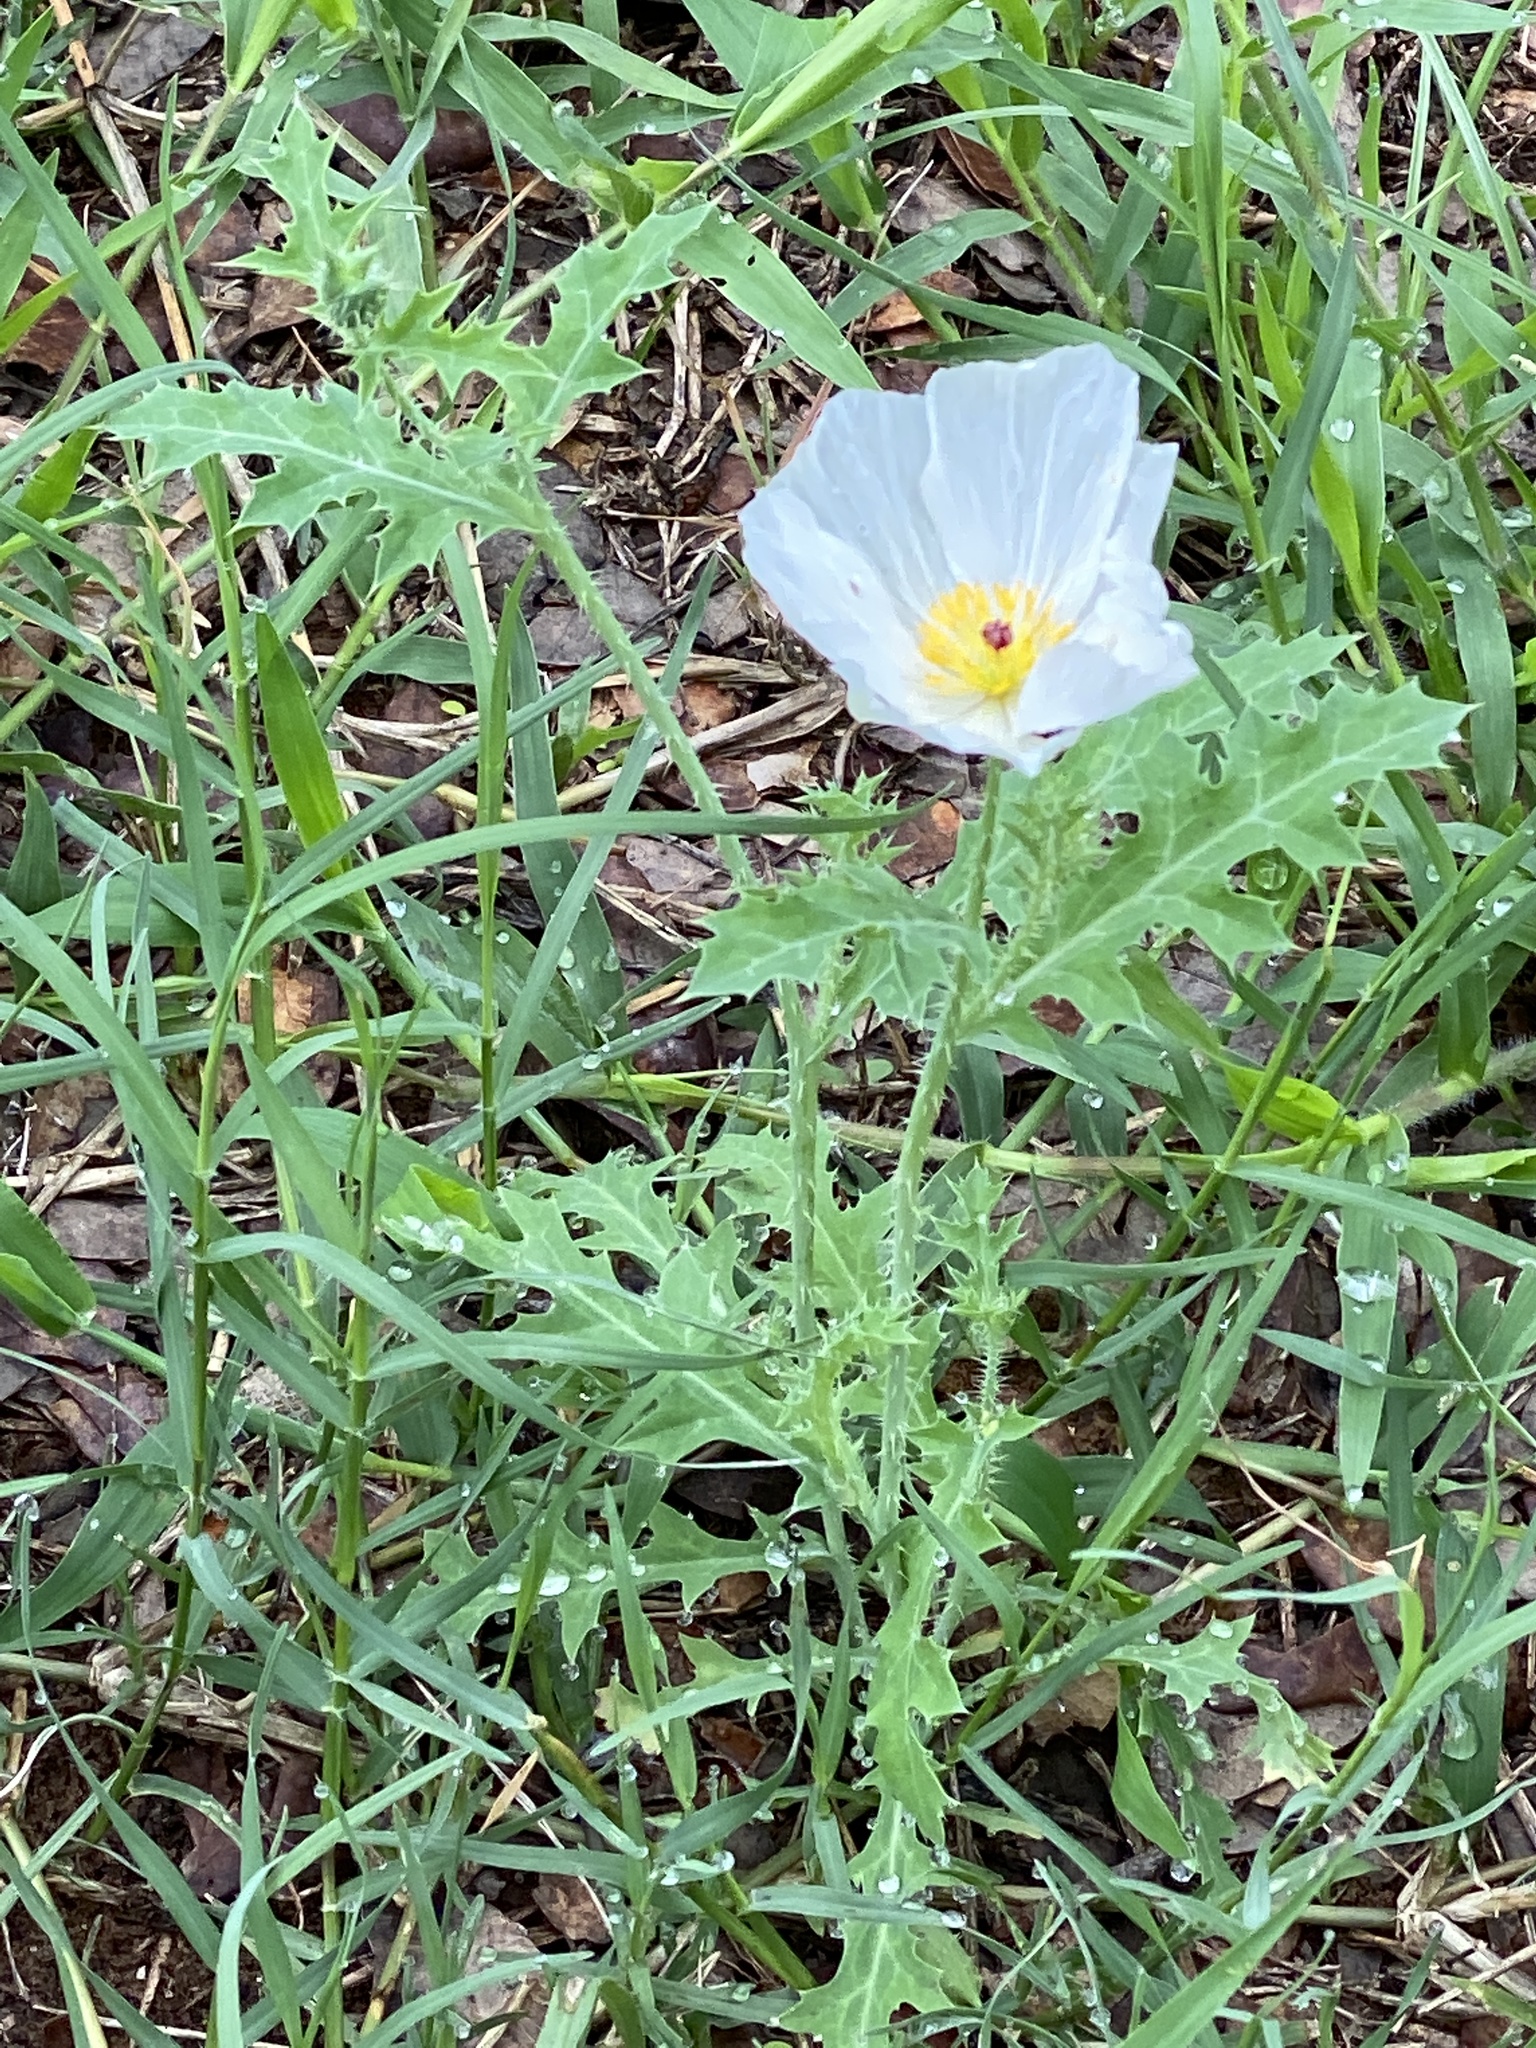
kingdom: Plantae
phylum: Tracheophyta
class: Magnoliopsida
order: Ranunculales
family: Papaveraceae
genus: Argemone
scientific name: Argemone albiflora
